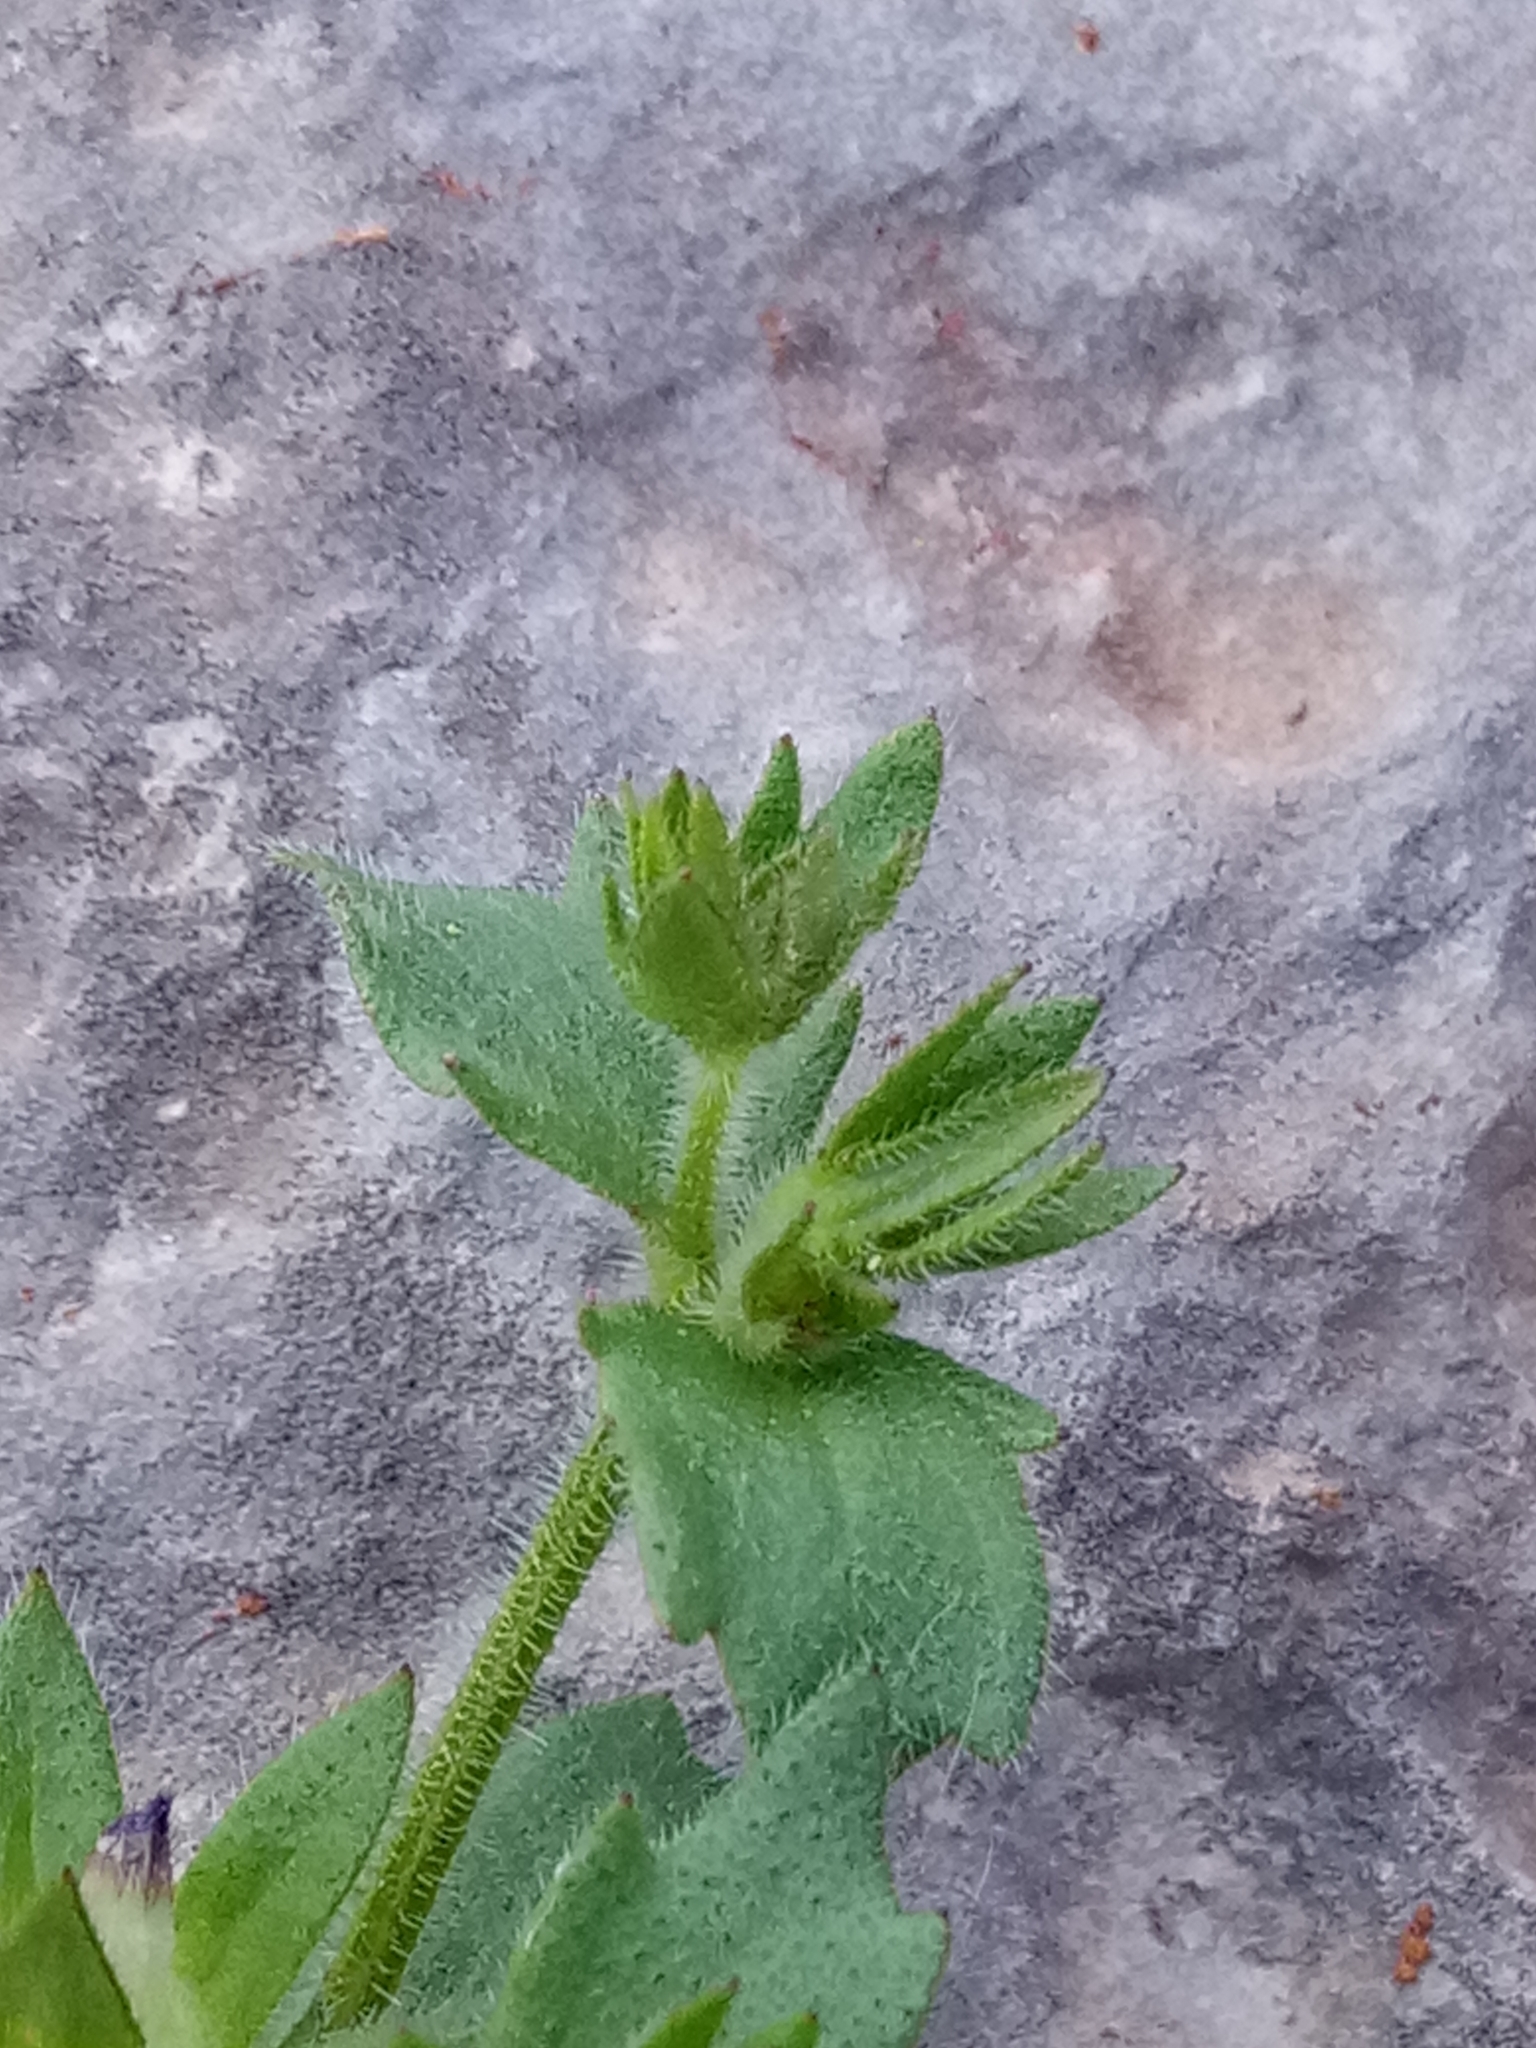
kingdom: Plantae
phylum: Tracheophyta
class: Magnoliopsida
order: Asterales
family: Campanulaceae
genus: Campanula
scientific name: Campanula erinus
